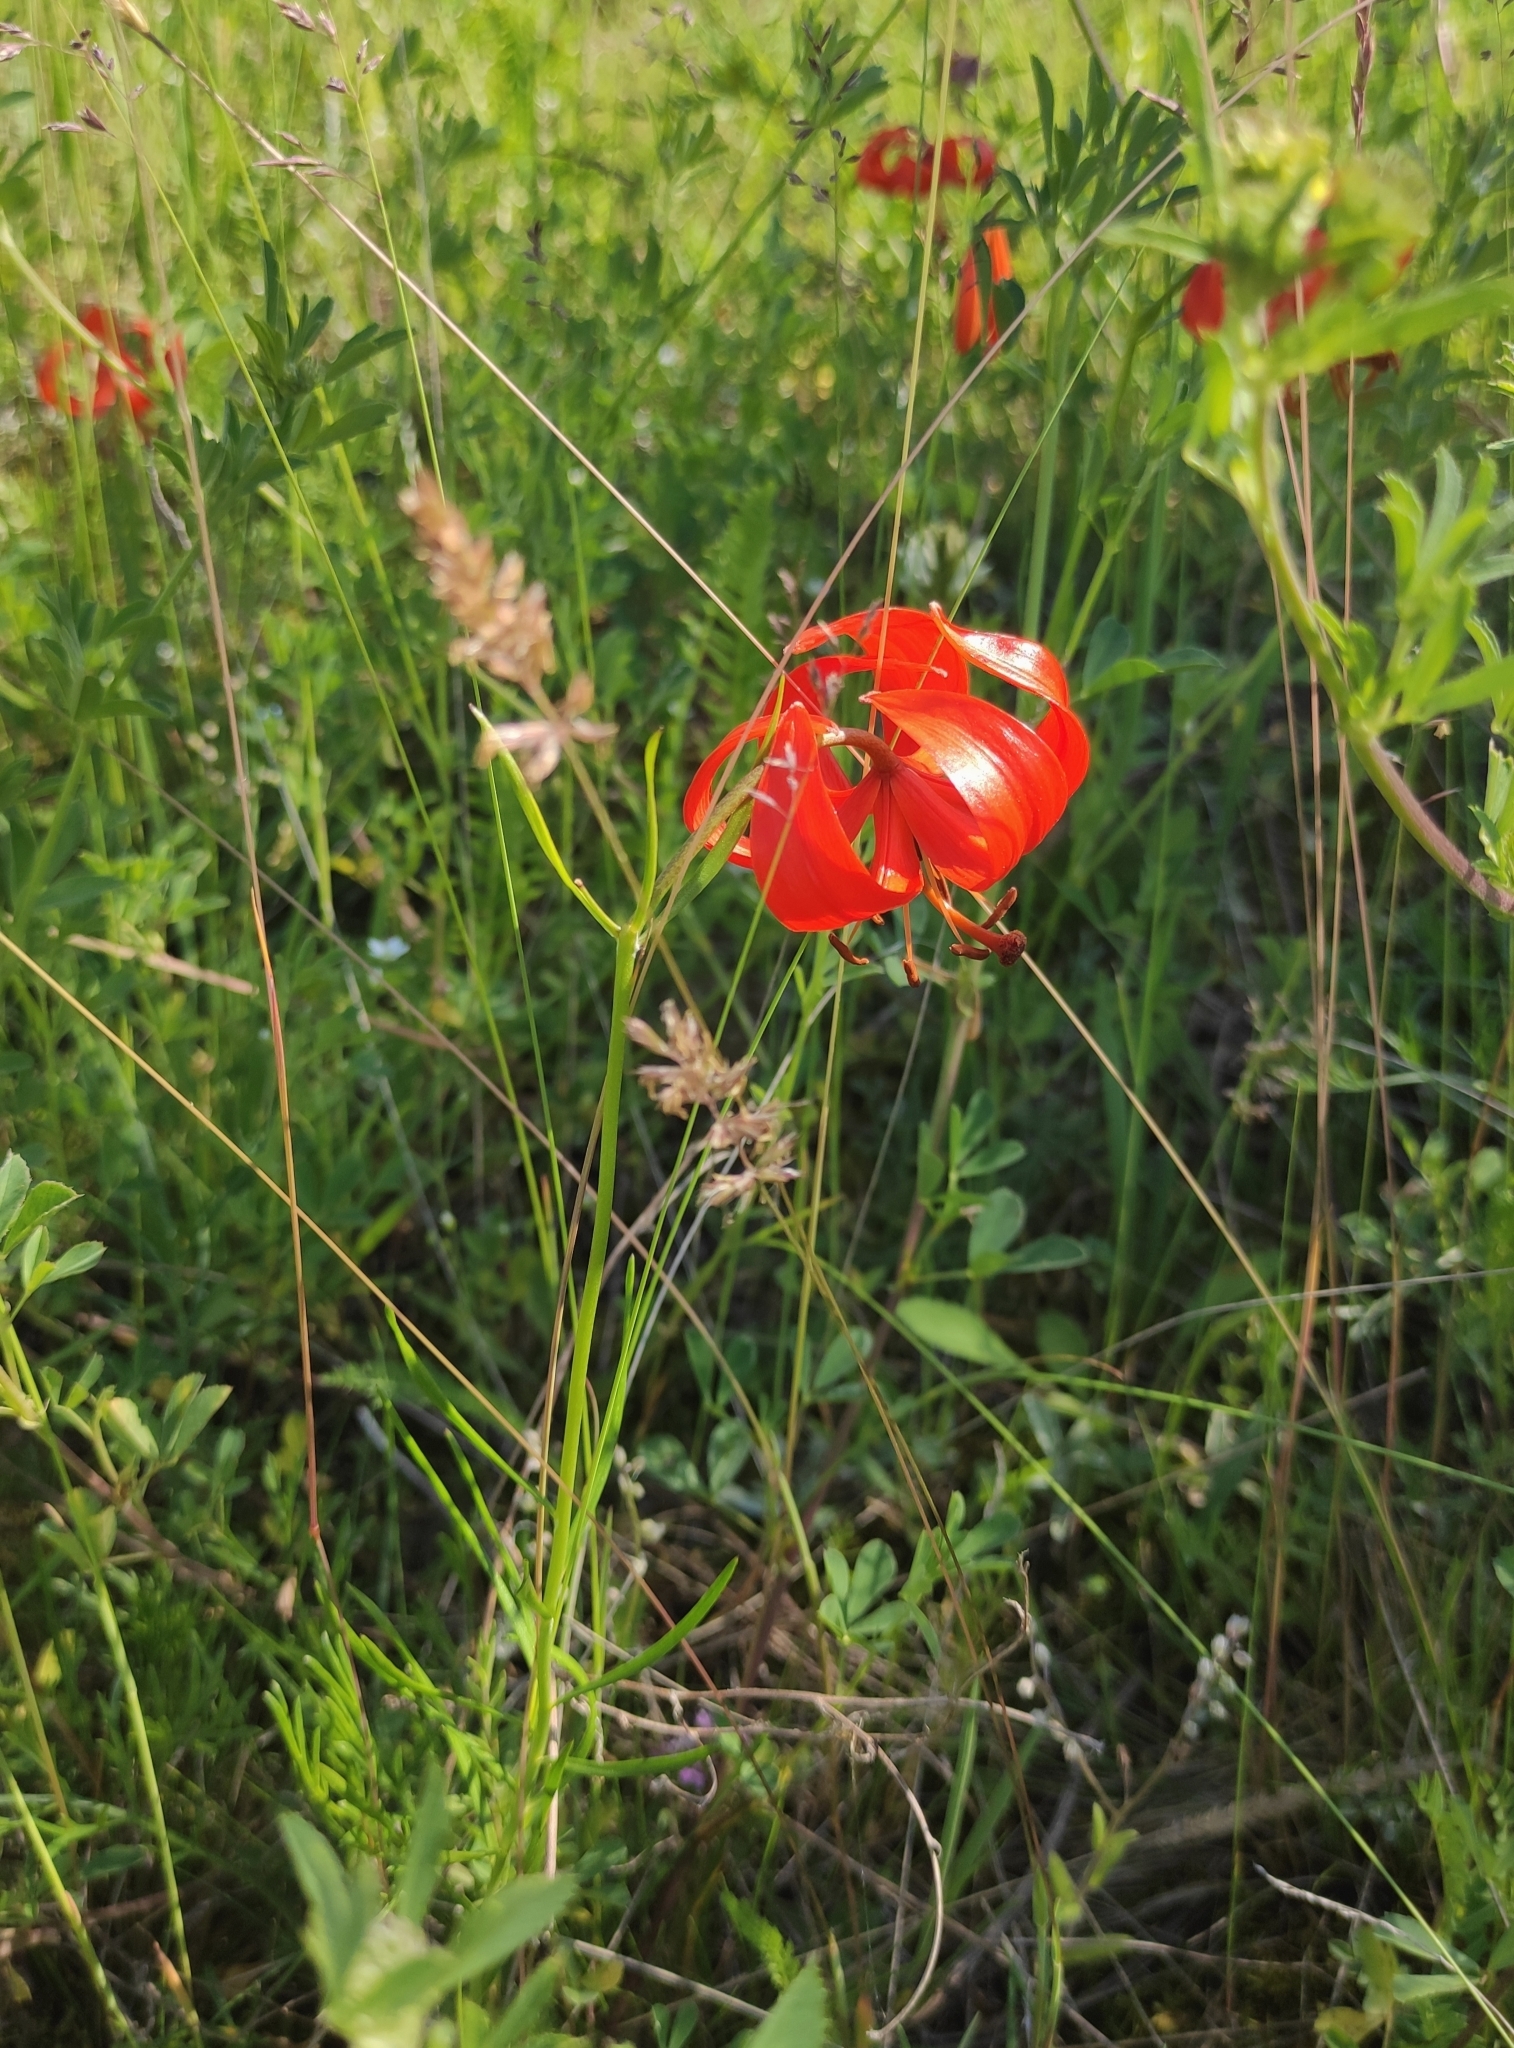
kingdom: Plantae
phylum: Tracheophyta
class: Liliopsida
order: Liliales
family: Liliaceae
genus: Lilium
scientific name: Lilium pumilum
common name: Coral lily
